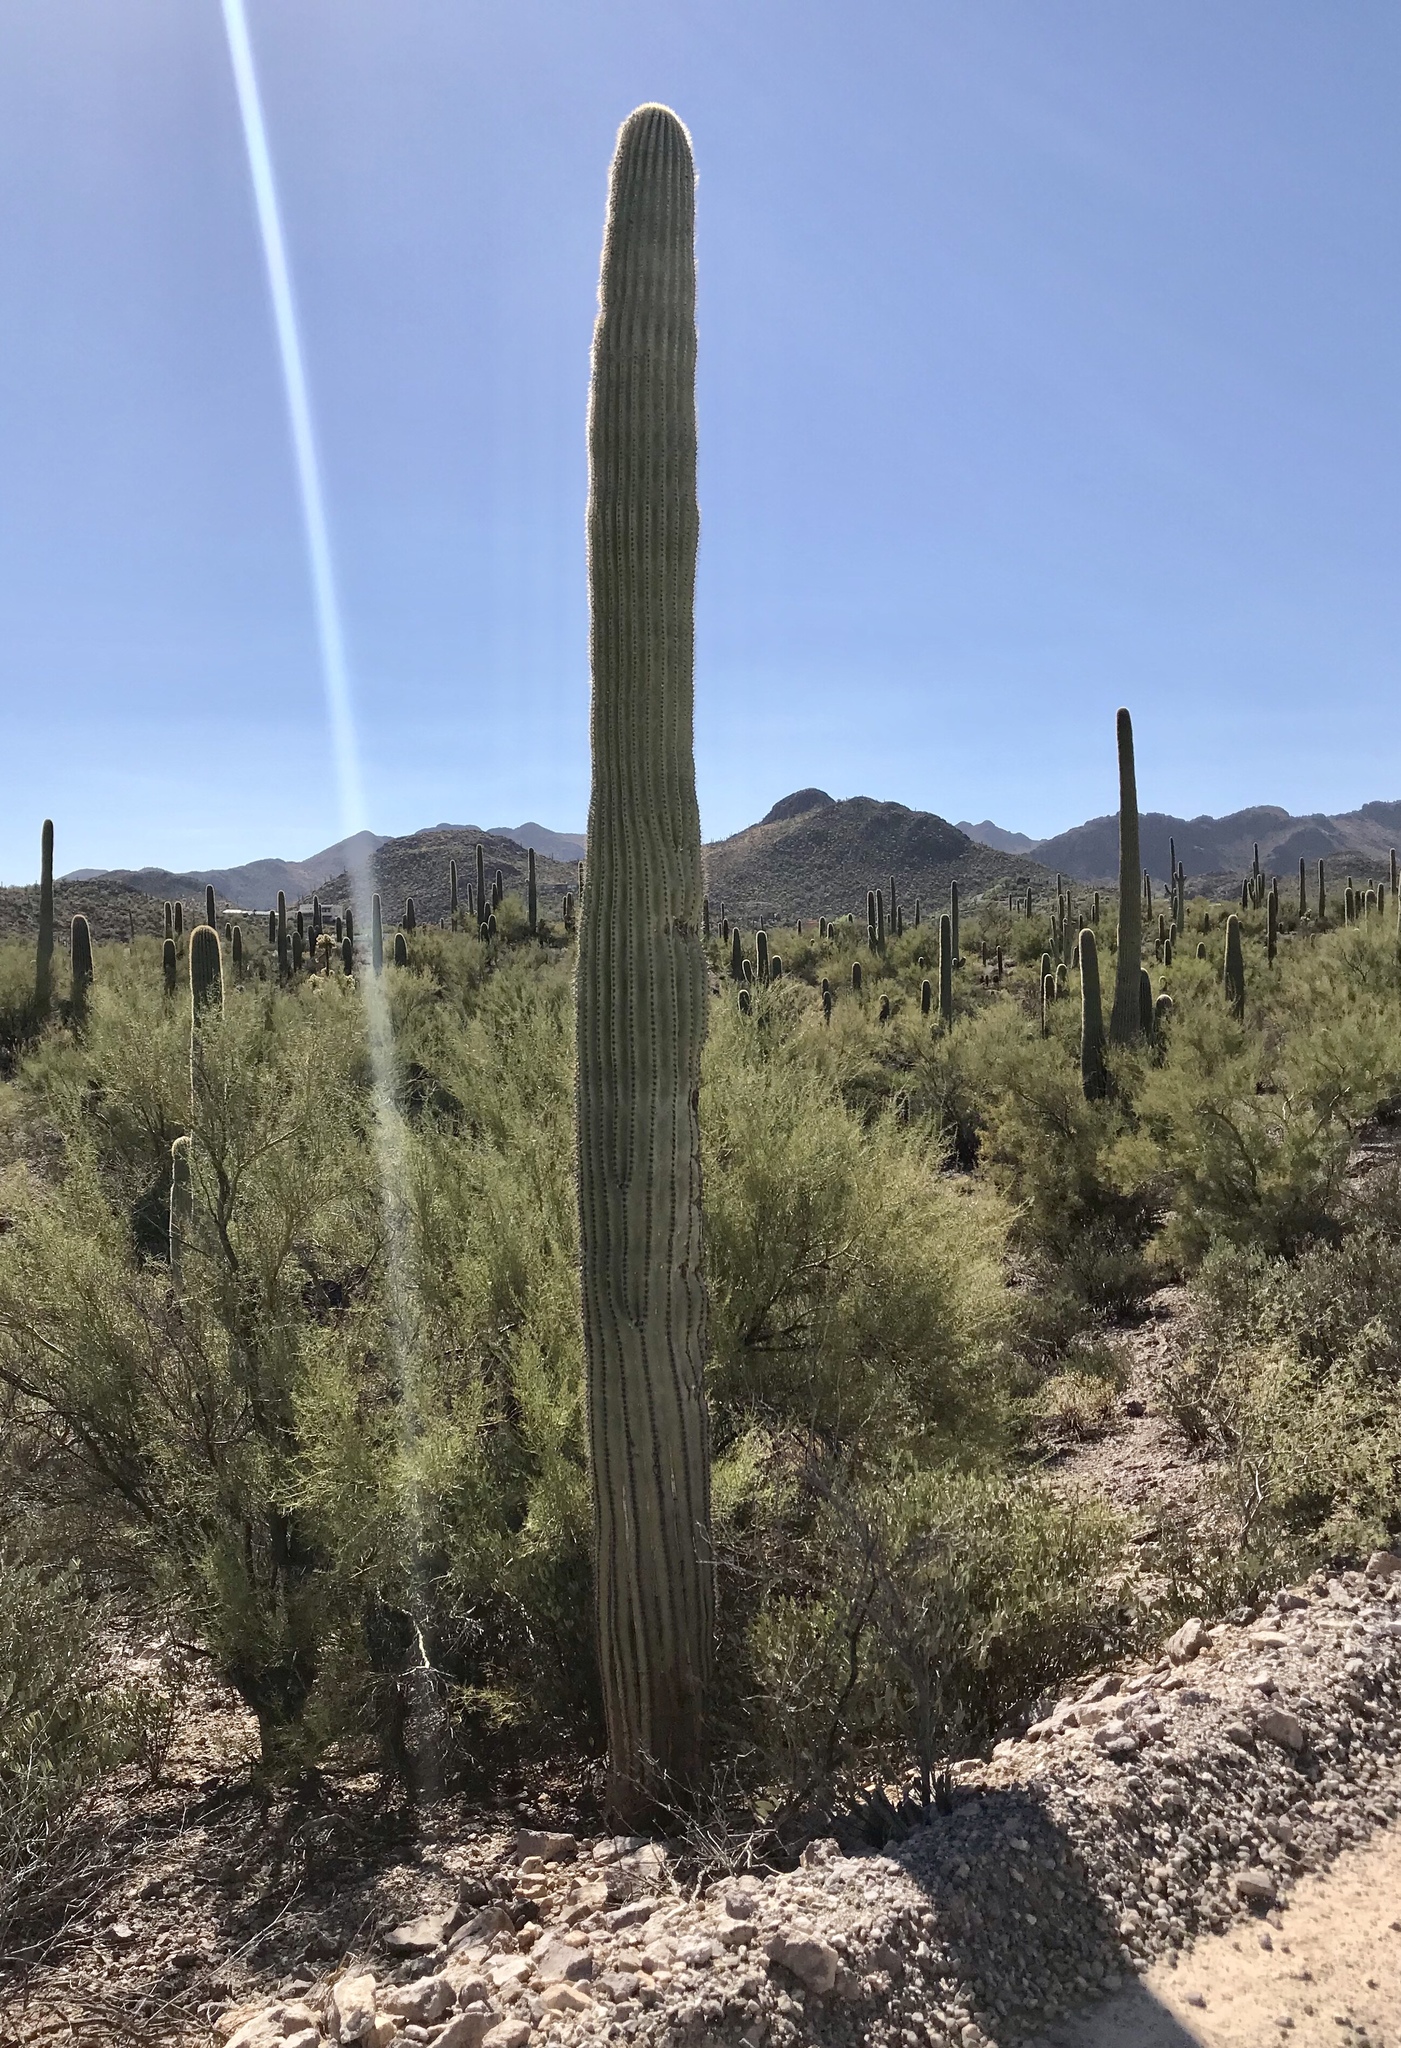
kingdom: Plantae
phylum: Tracheophyta
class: Magnoliopsida
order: Caryophyllales
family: Cactaceae
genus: Carnegiea
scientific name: Carnegiea gigantea
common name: Saguaro
